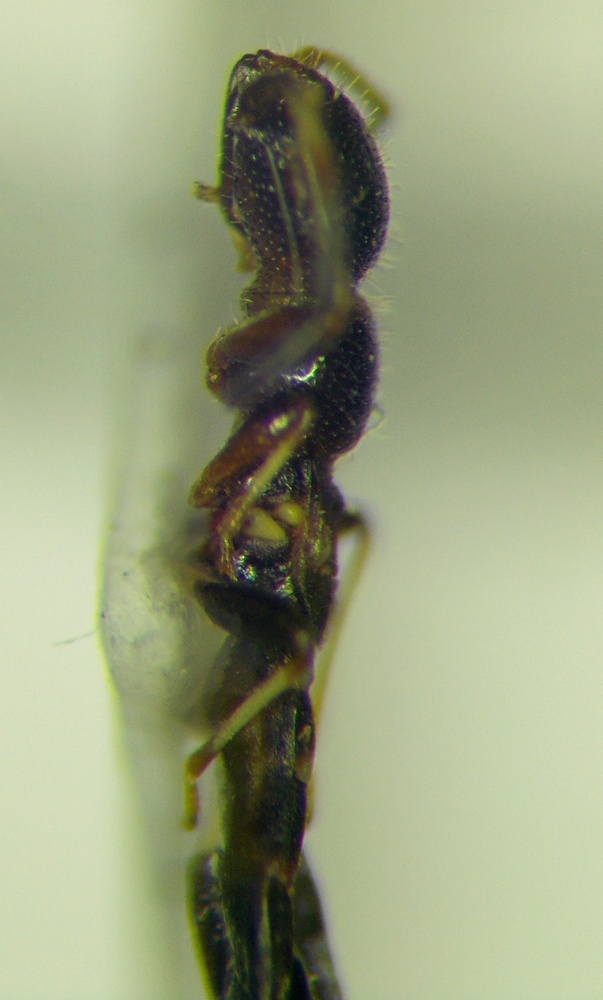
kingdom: Animalia
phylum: Arthropoda
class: Insecta
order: Hemiptera
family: Oxycarenidae
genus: Bogdiana
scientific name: Bogdiana myrmica
